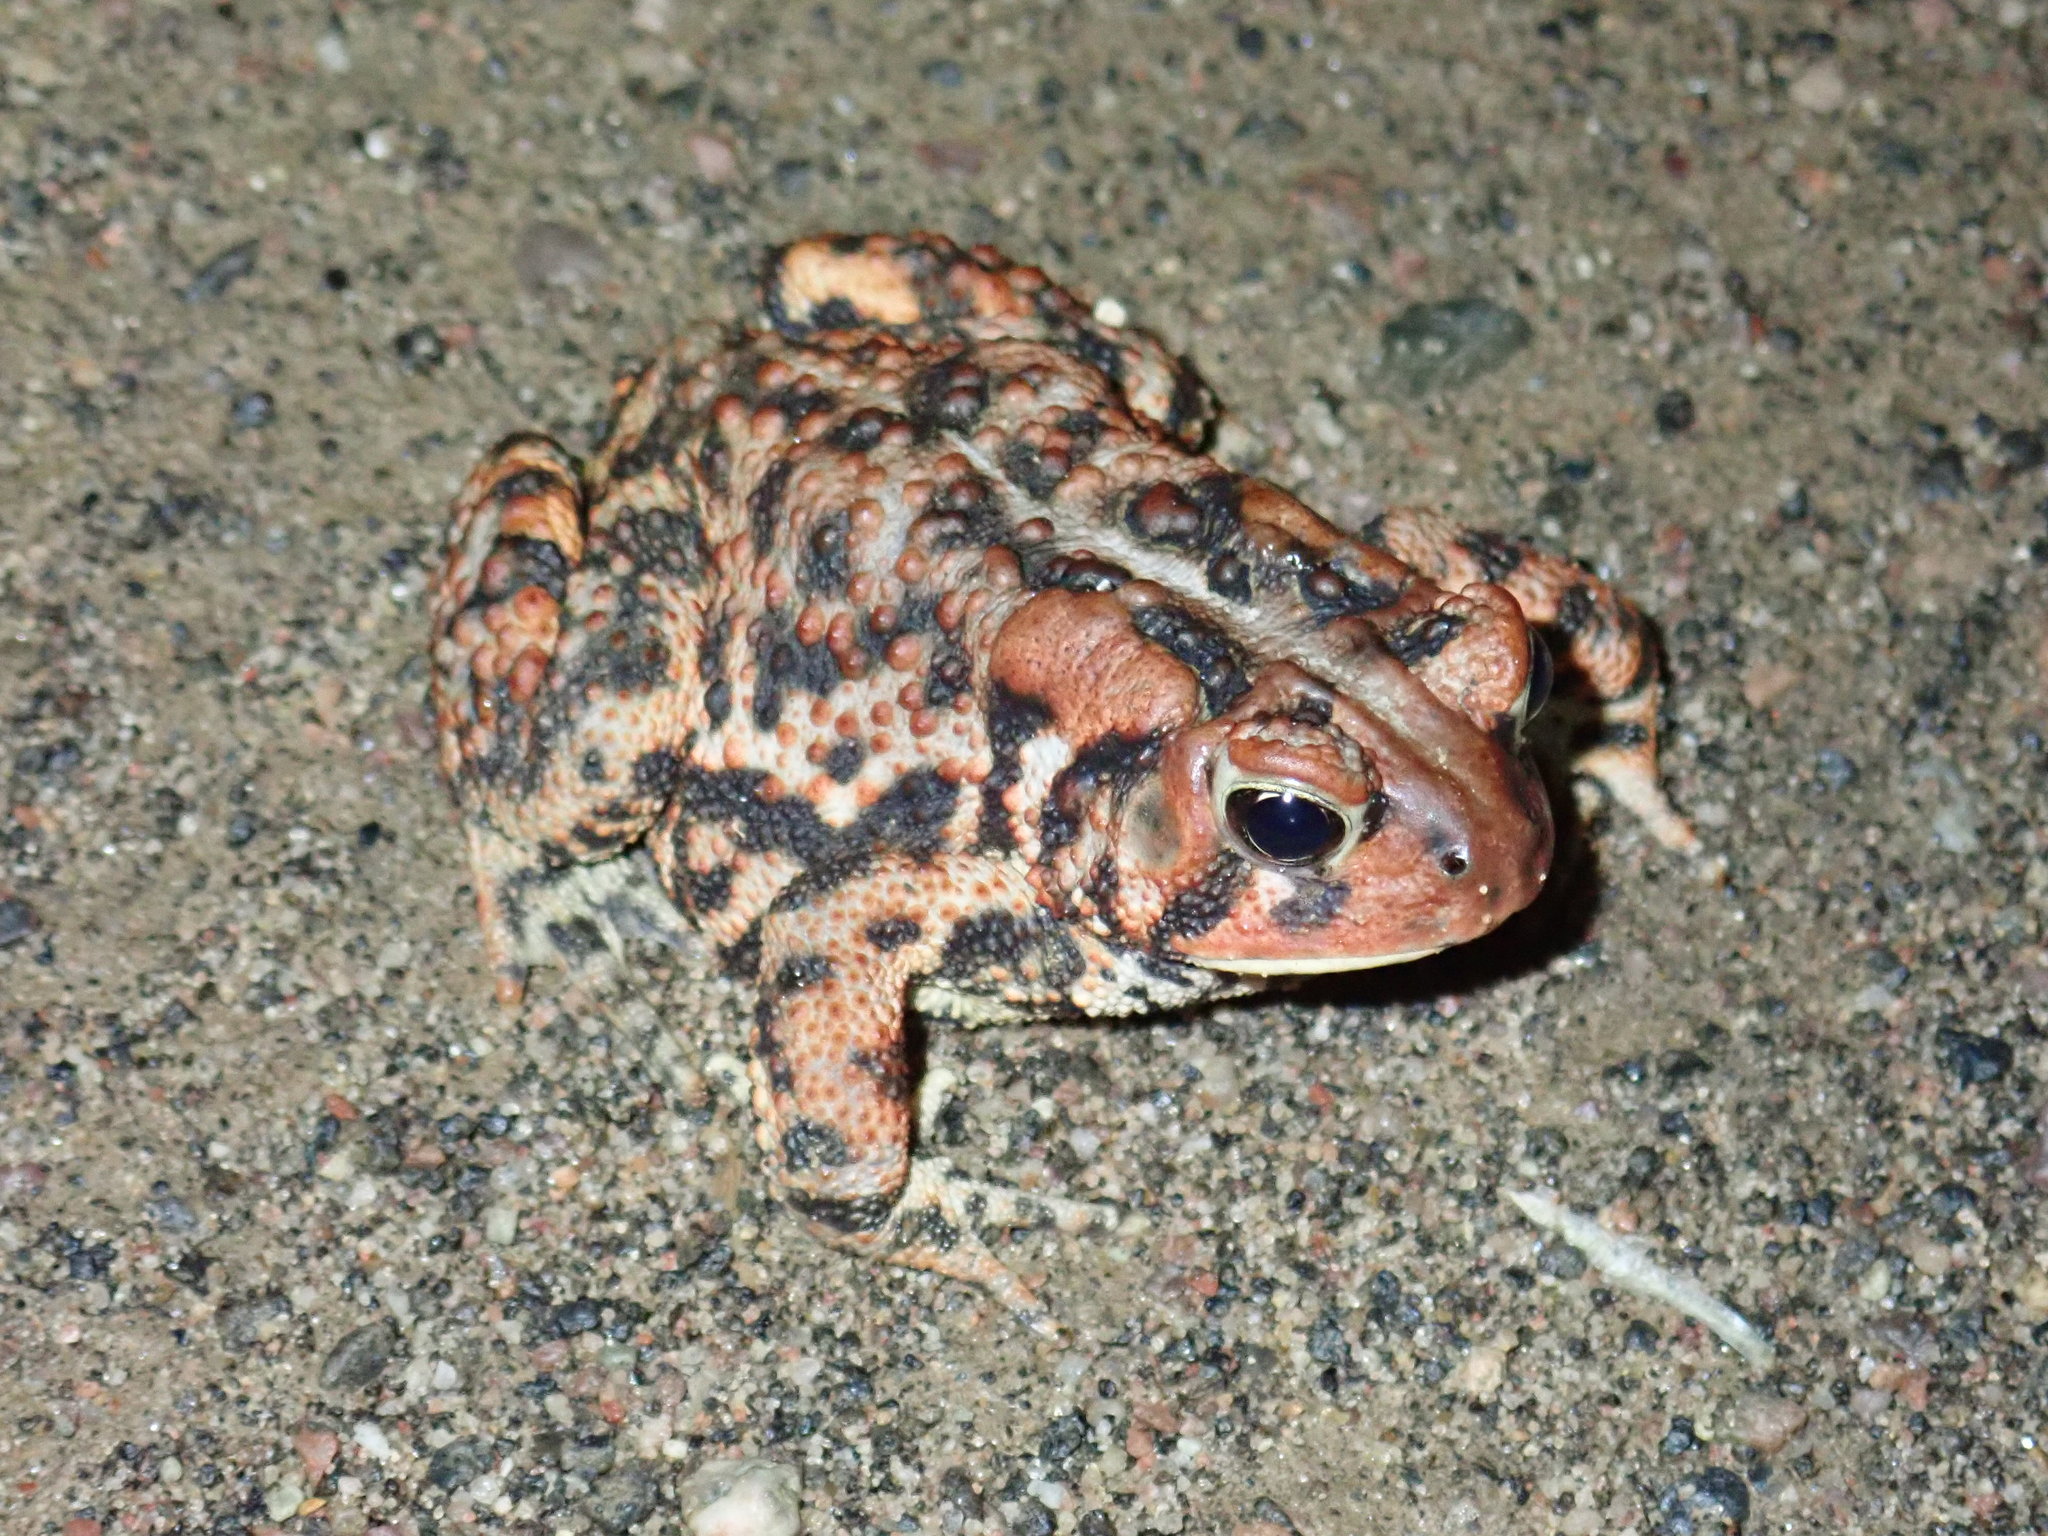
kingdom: Animalia
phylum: Chordata
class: Amphibia
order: Anura
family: Bufonidae
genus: Anaxyrus
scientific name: Anaxyrus americanus
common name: American toad
